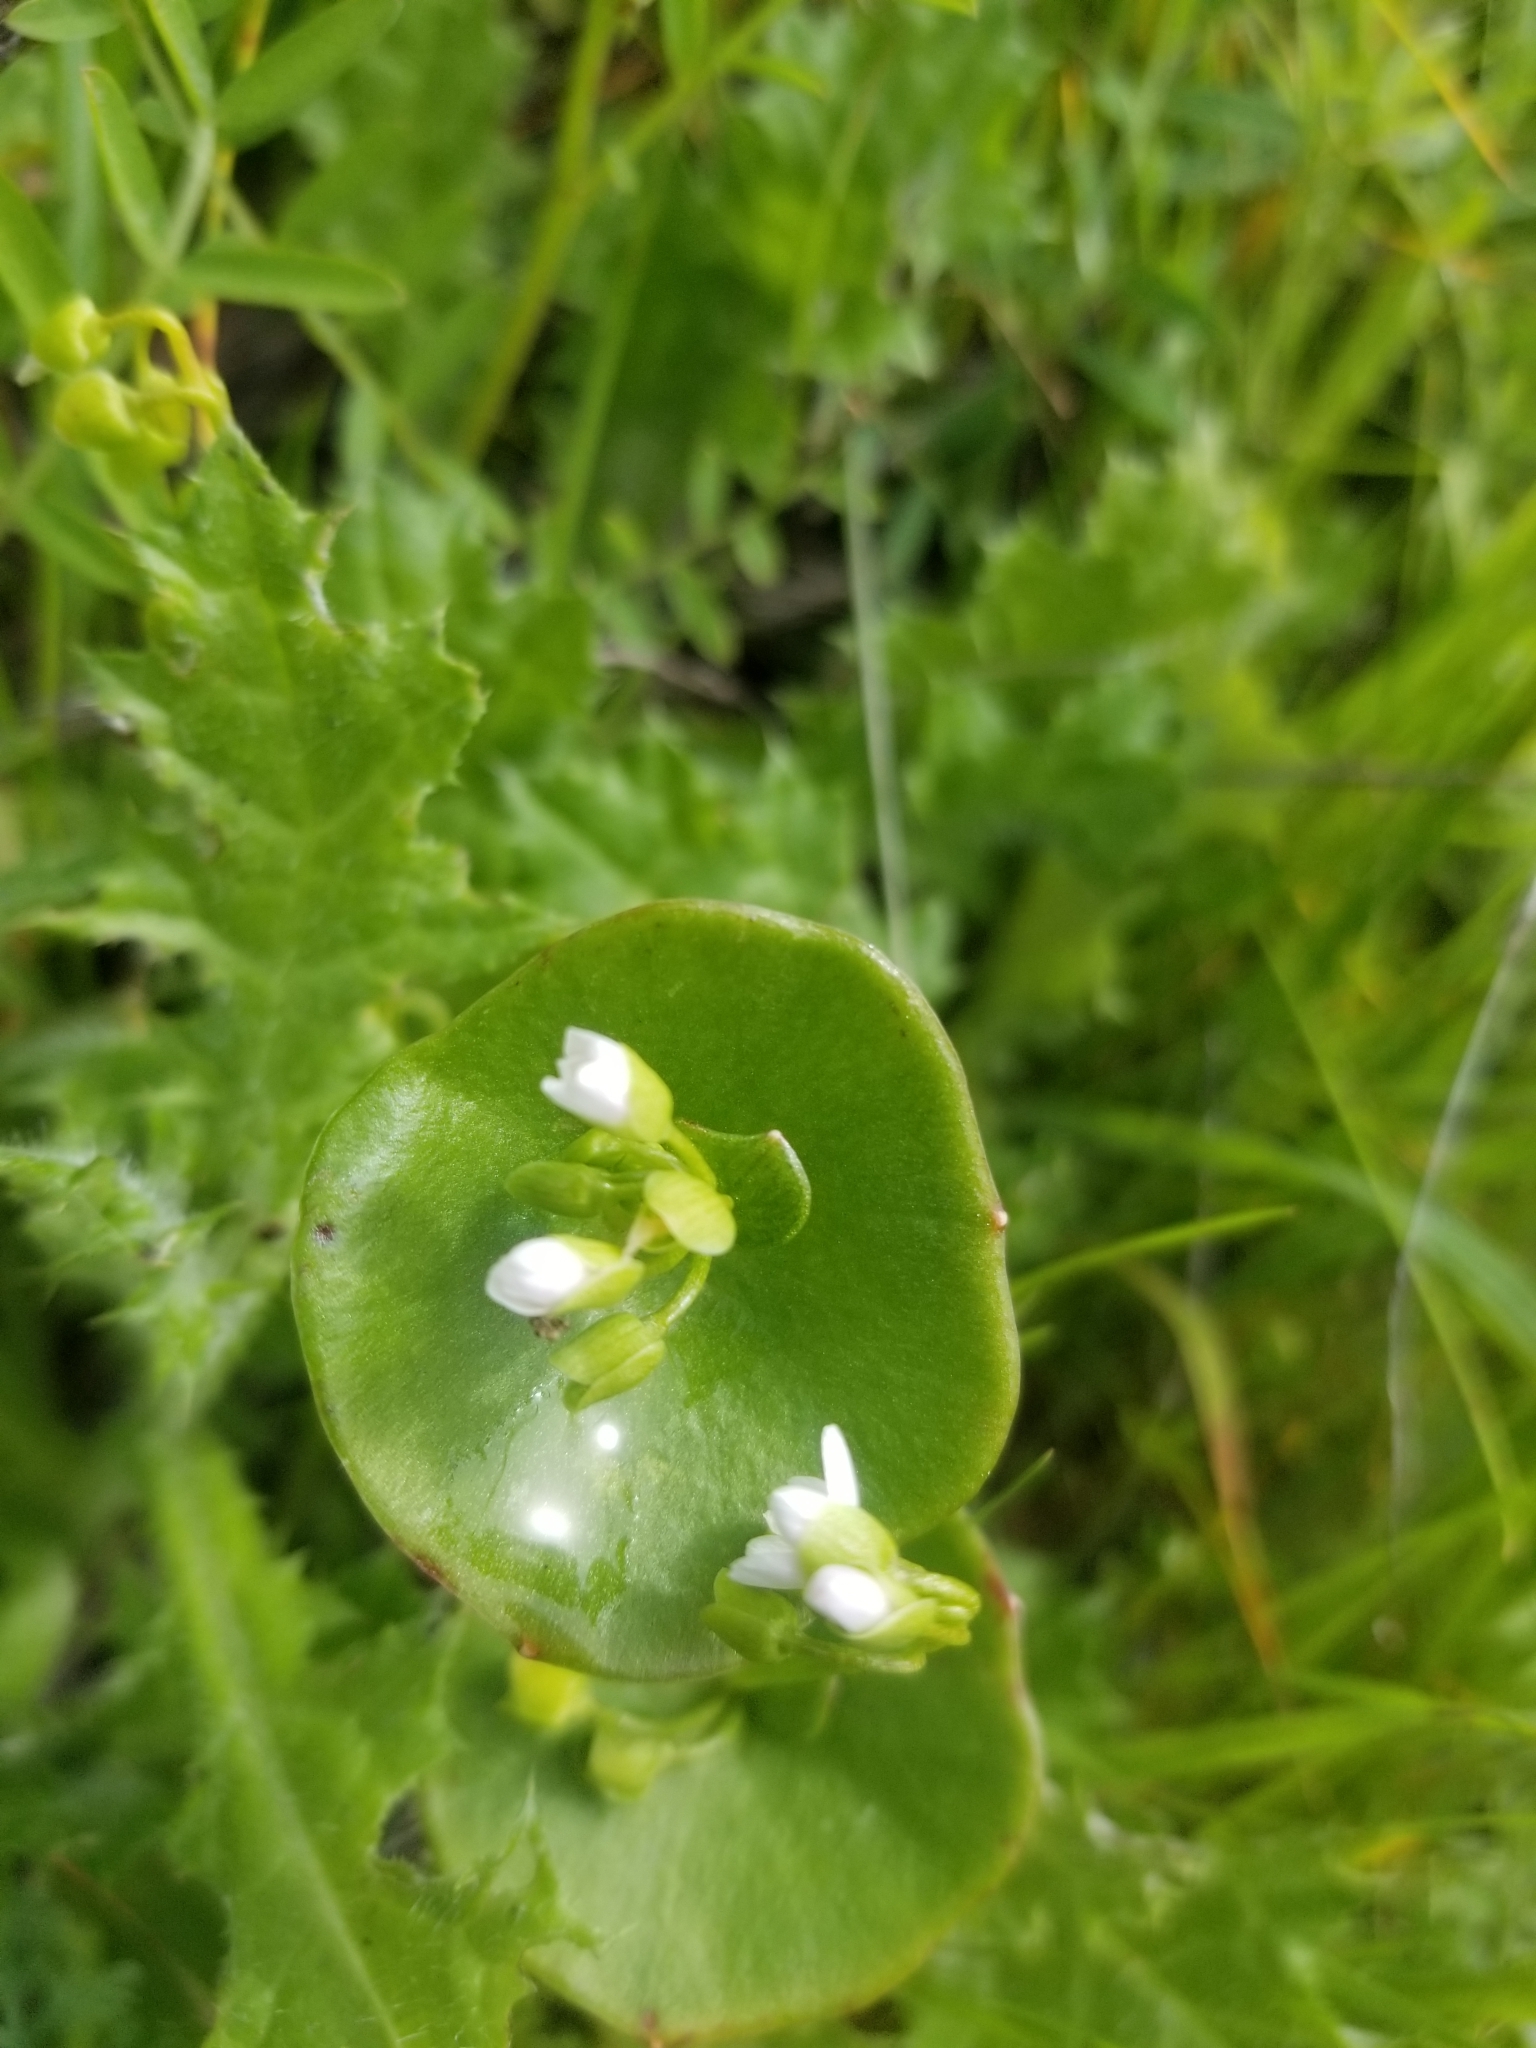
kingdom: Plantae
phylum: Tracheophyta
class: Magnoliopsida
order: Caryophyllales
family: Montiaceae
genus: Claytonia
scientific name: Claytonia perfoliata
